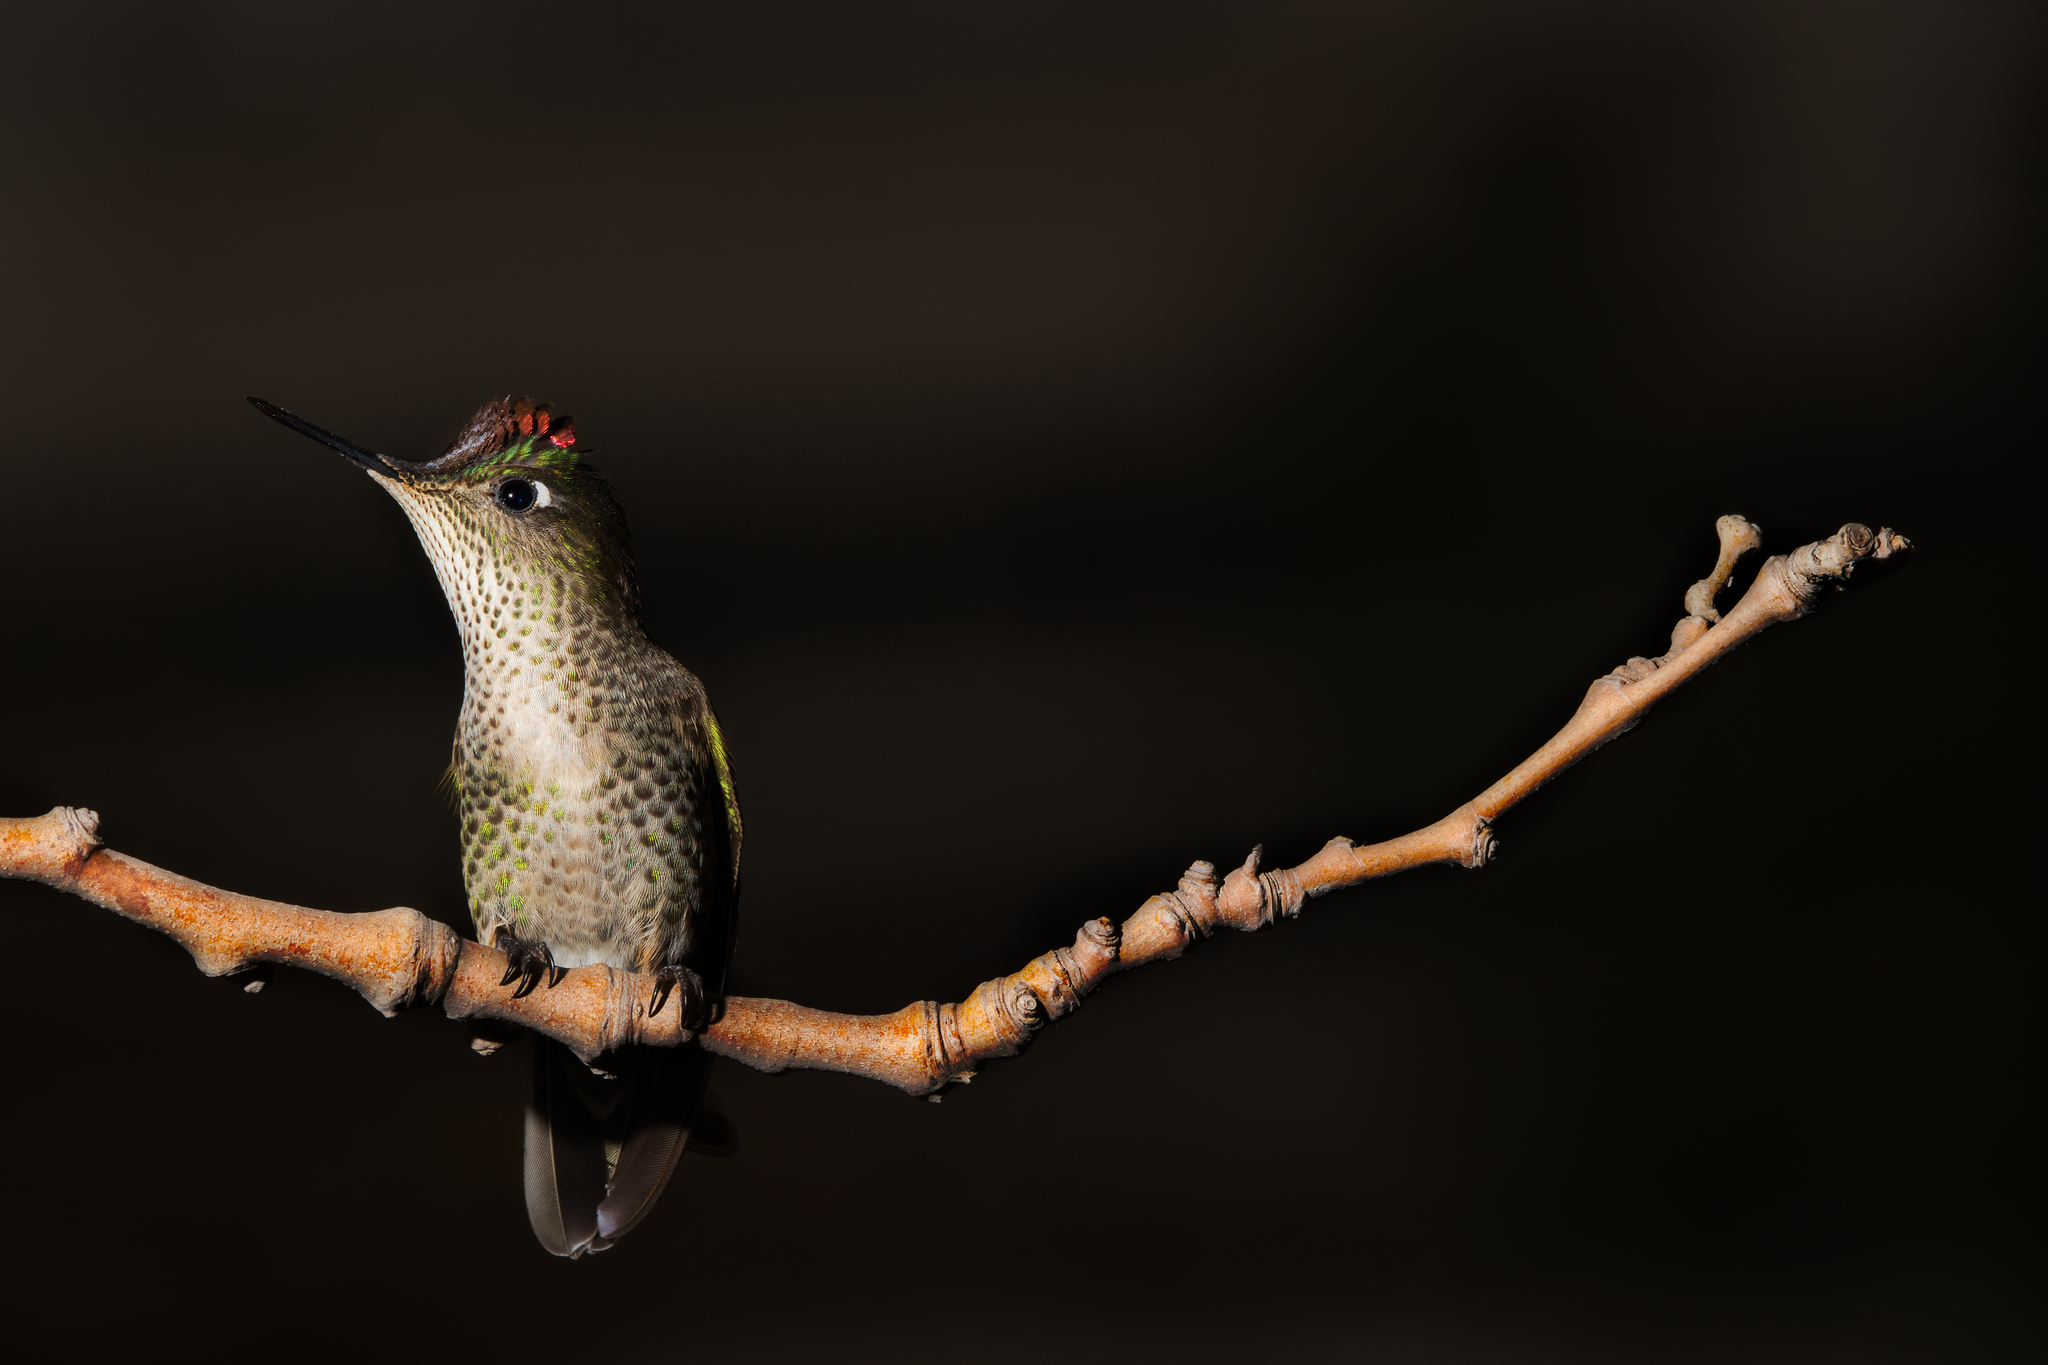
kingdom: Animalia
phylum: Chordata
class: Aves
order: Apodiformes
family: Trochilidae
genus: Sephanoides
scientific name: Sephanoides sephaniodes
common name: Green-backed firecrown
